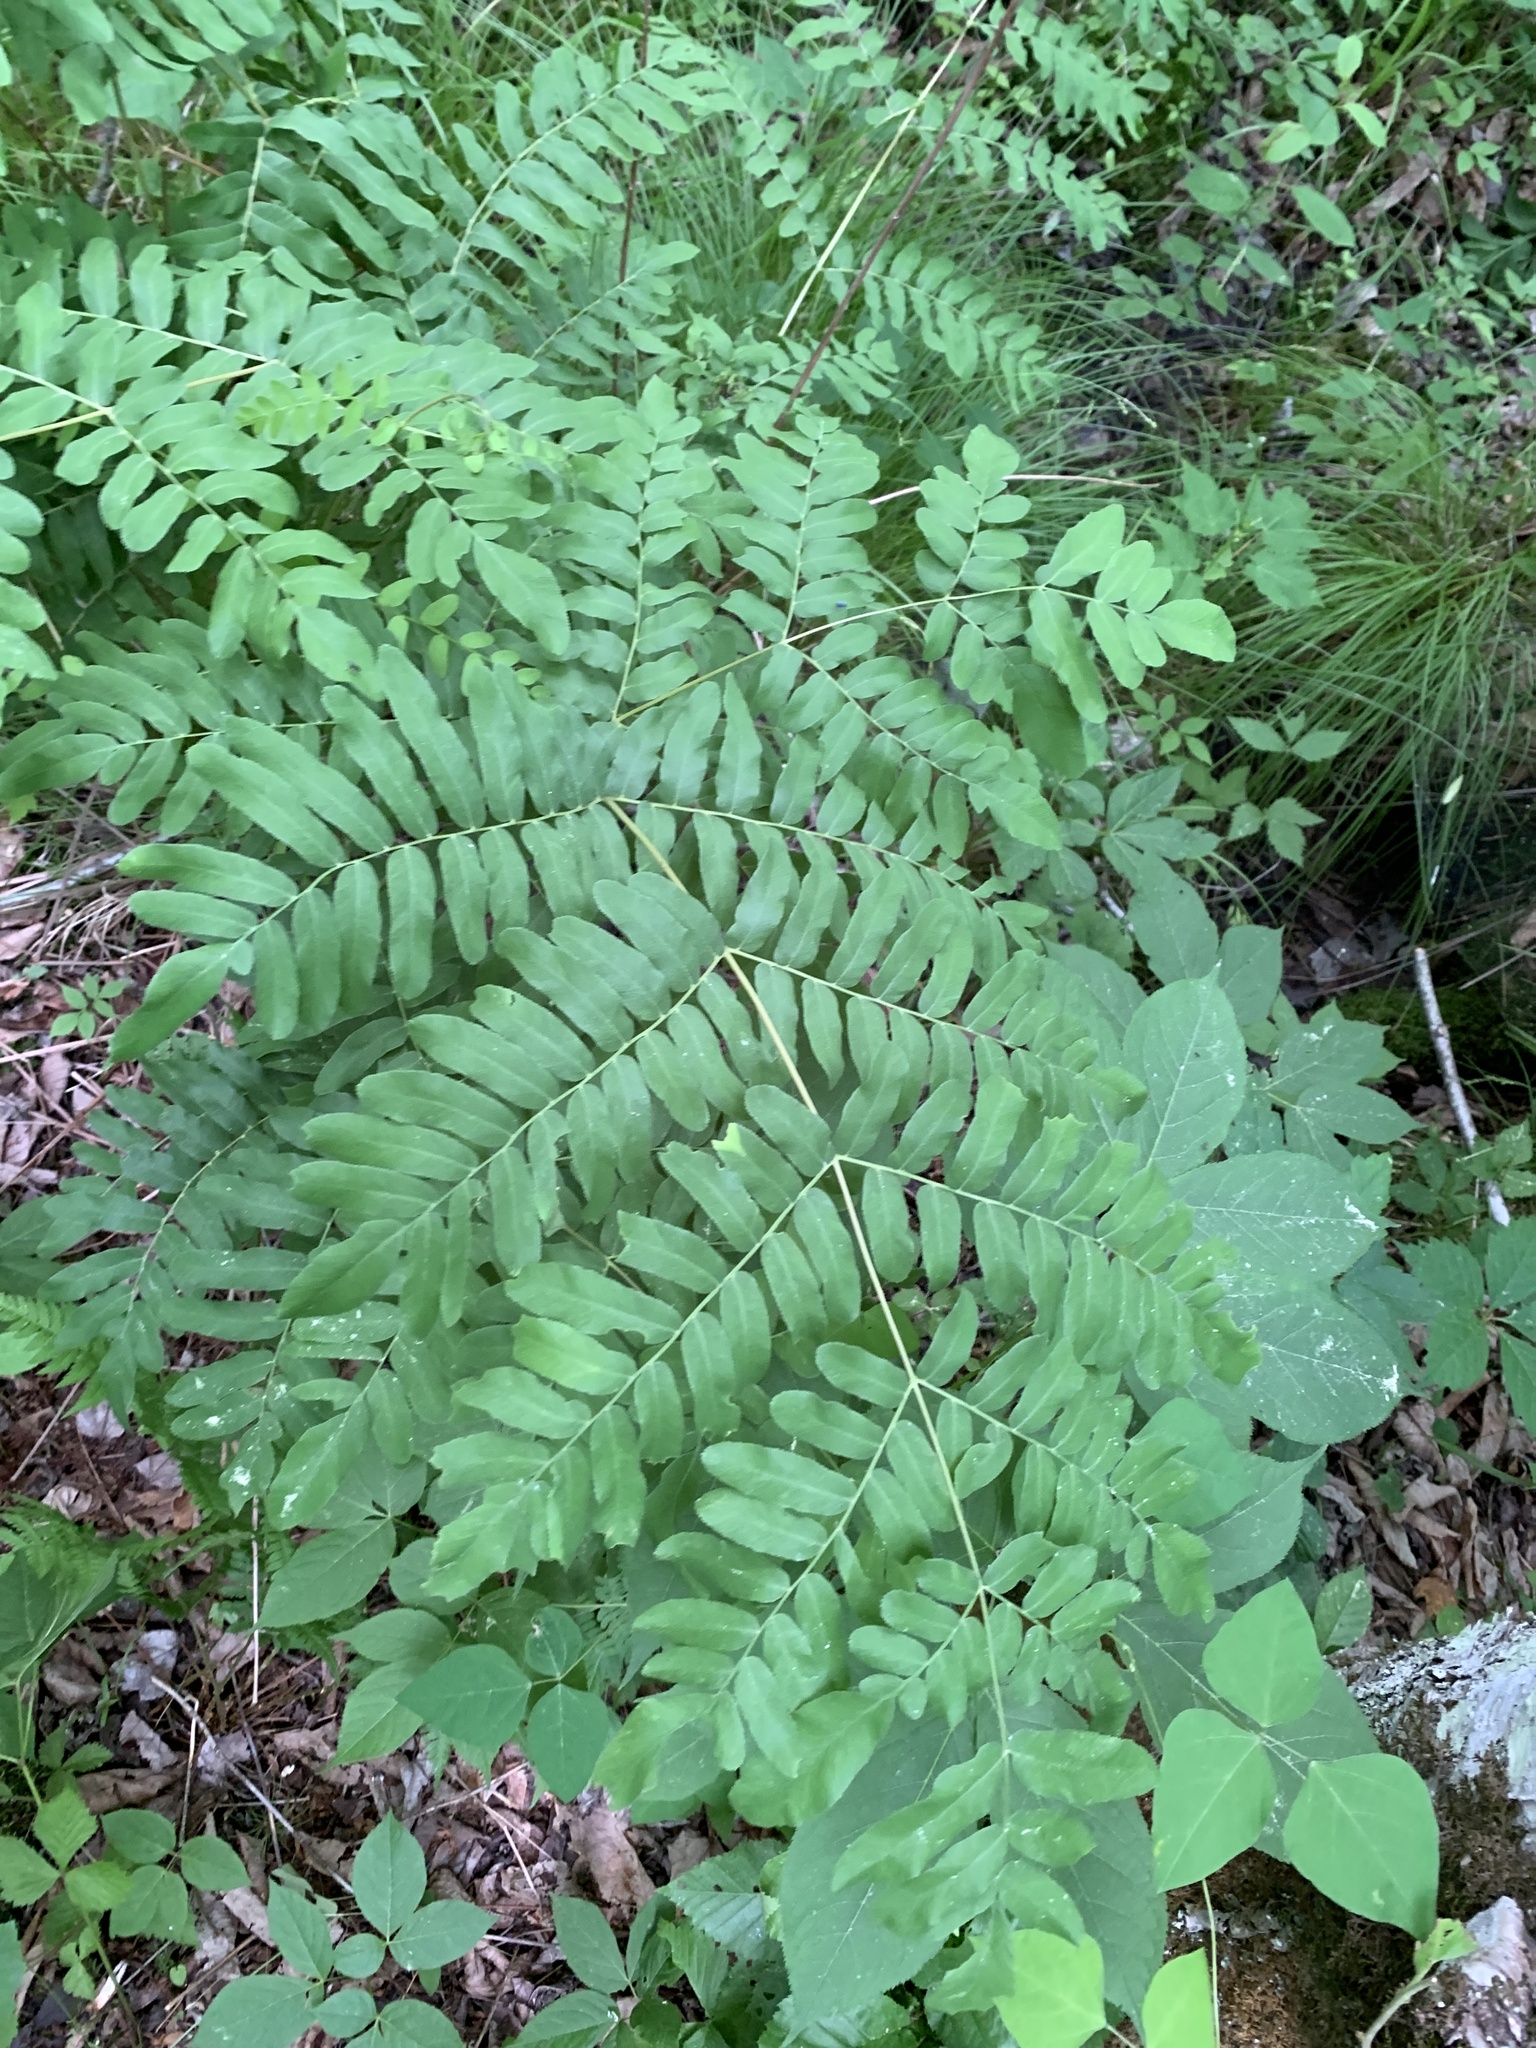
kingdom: Plantae
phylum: Tracheophyta
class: Polypodiopsida
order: Osmundales
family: Osmundaceae
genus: Osmunda
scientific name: Osmunda spectabilis
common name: American royal fern
